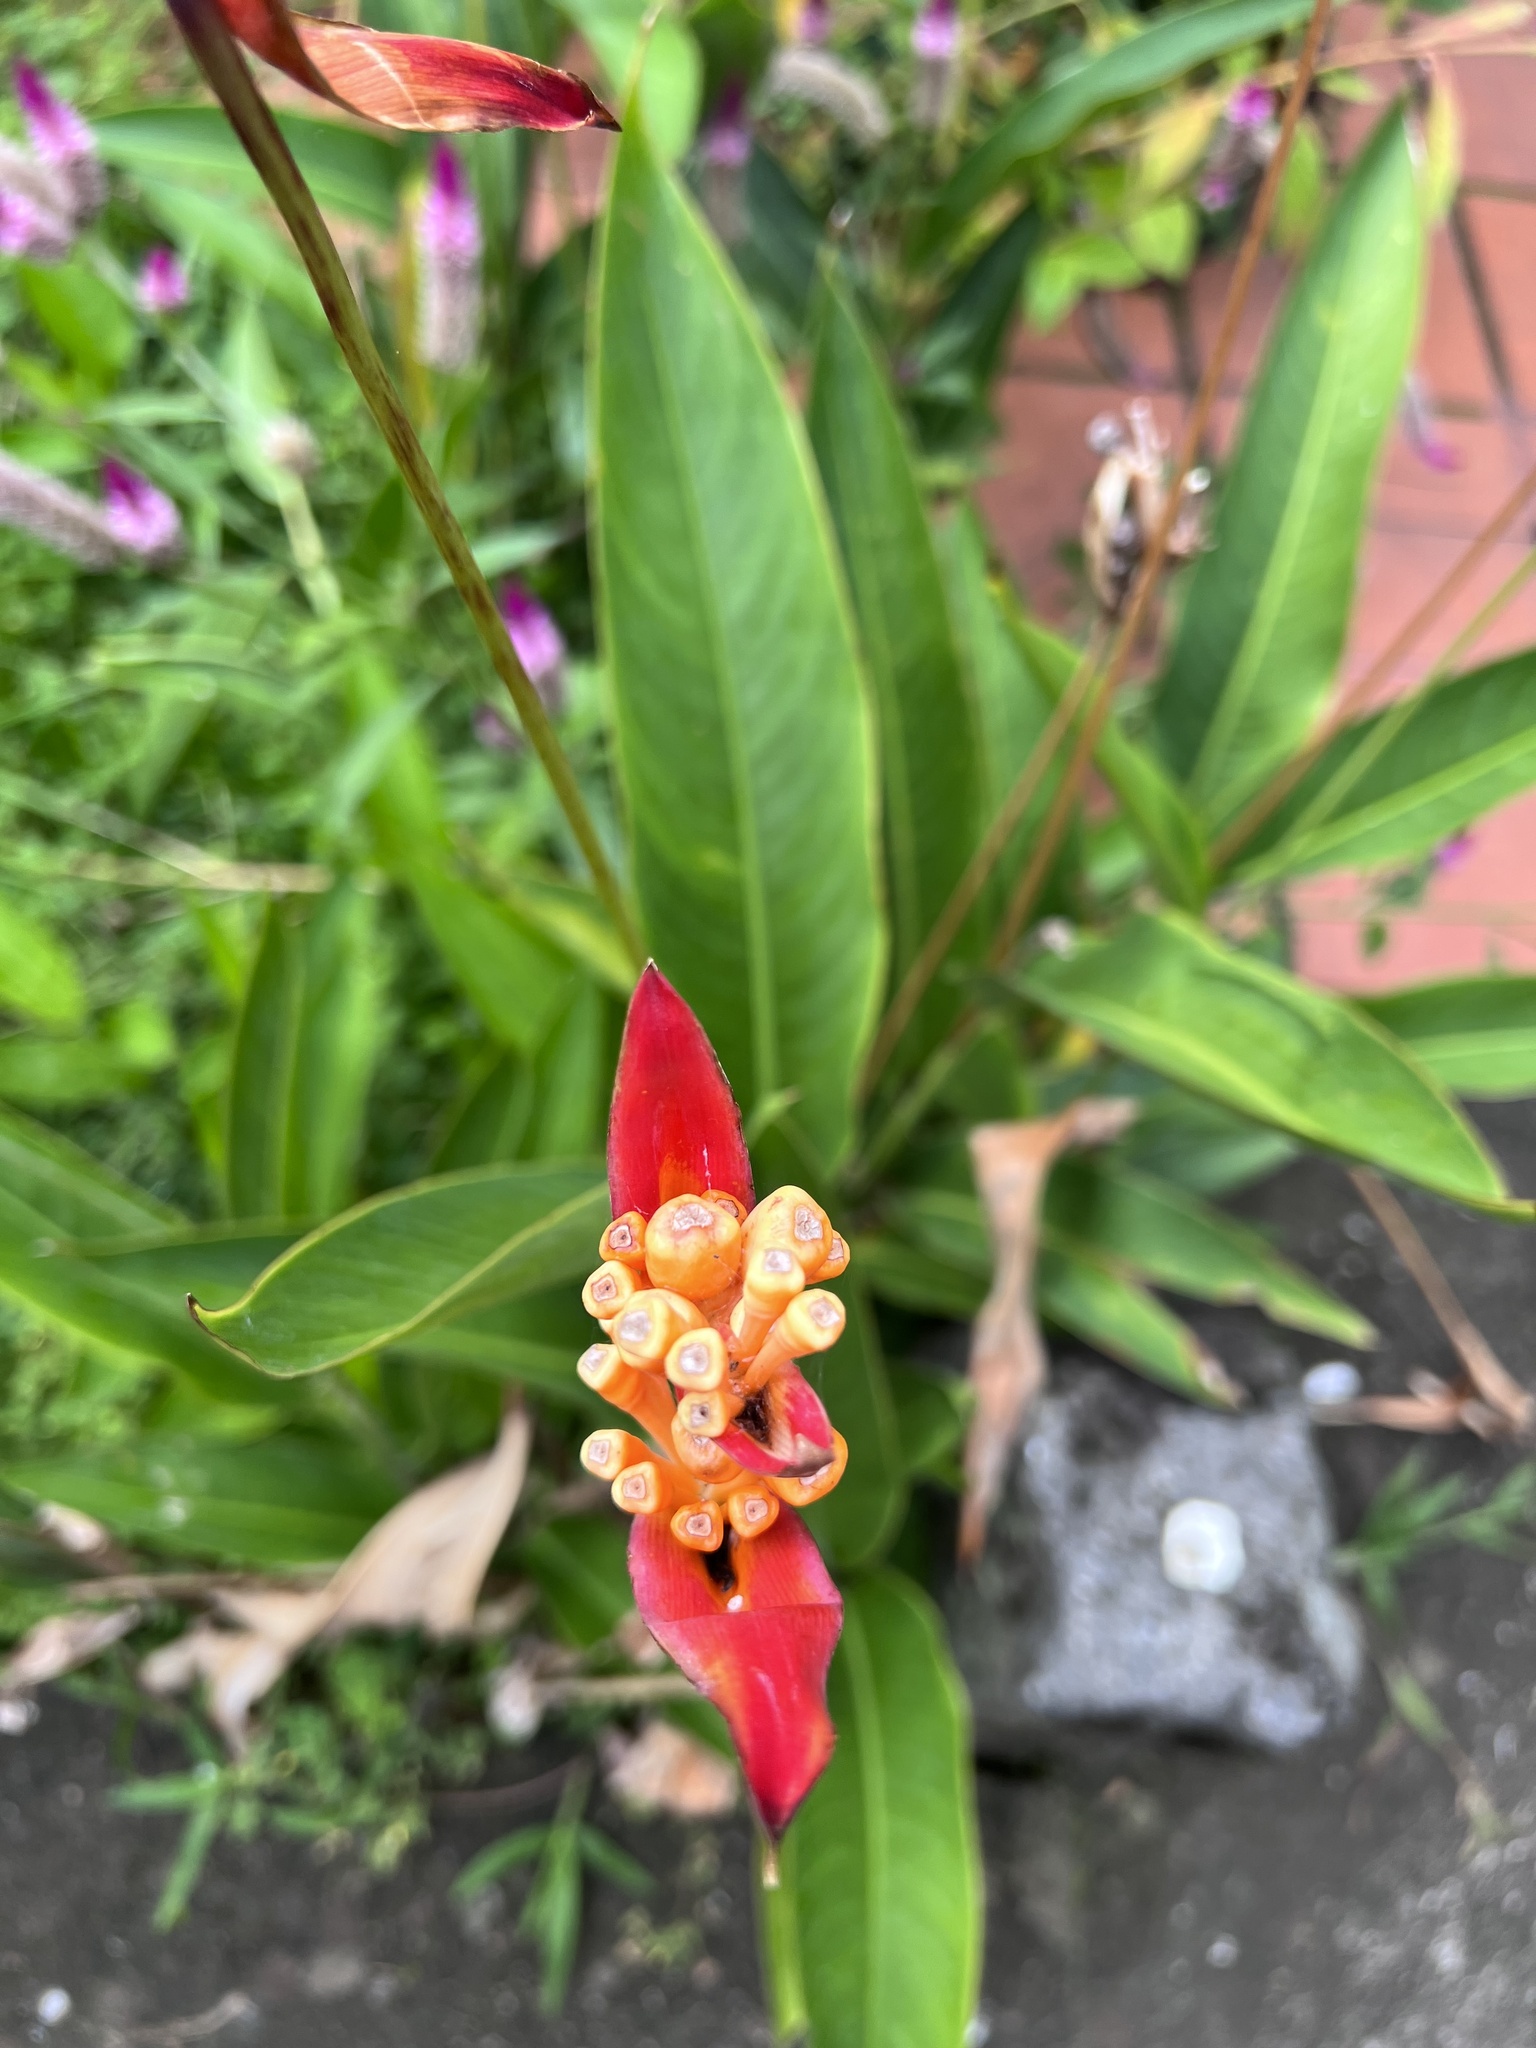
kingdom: Plantae
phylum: Tracheophyta
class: Liliopsida
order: Zingiberales
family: Heliconiaceae
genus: Heliconia
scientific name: Heliconia psittacorum
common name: Parrot's-flower
